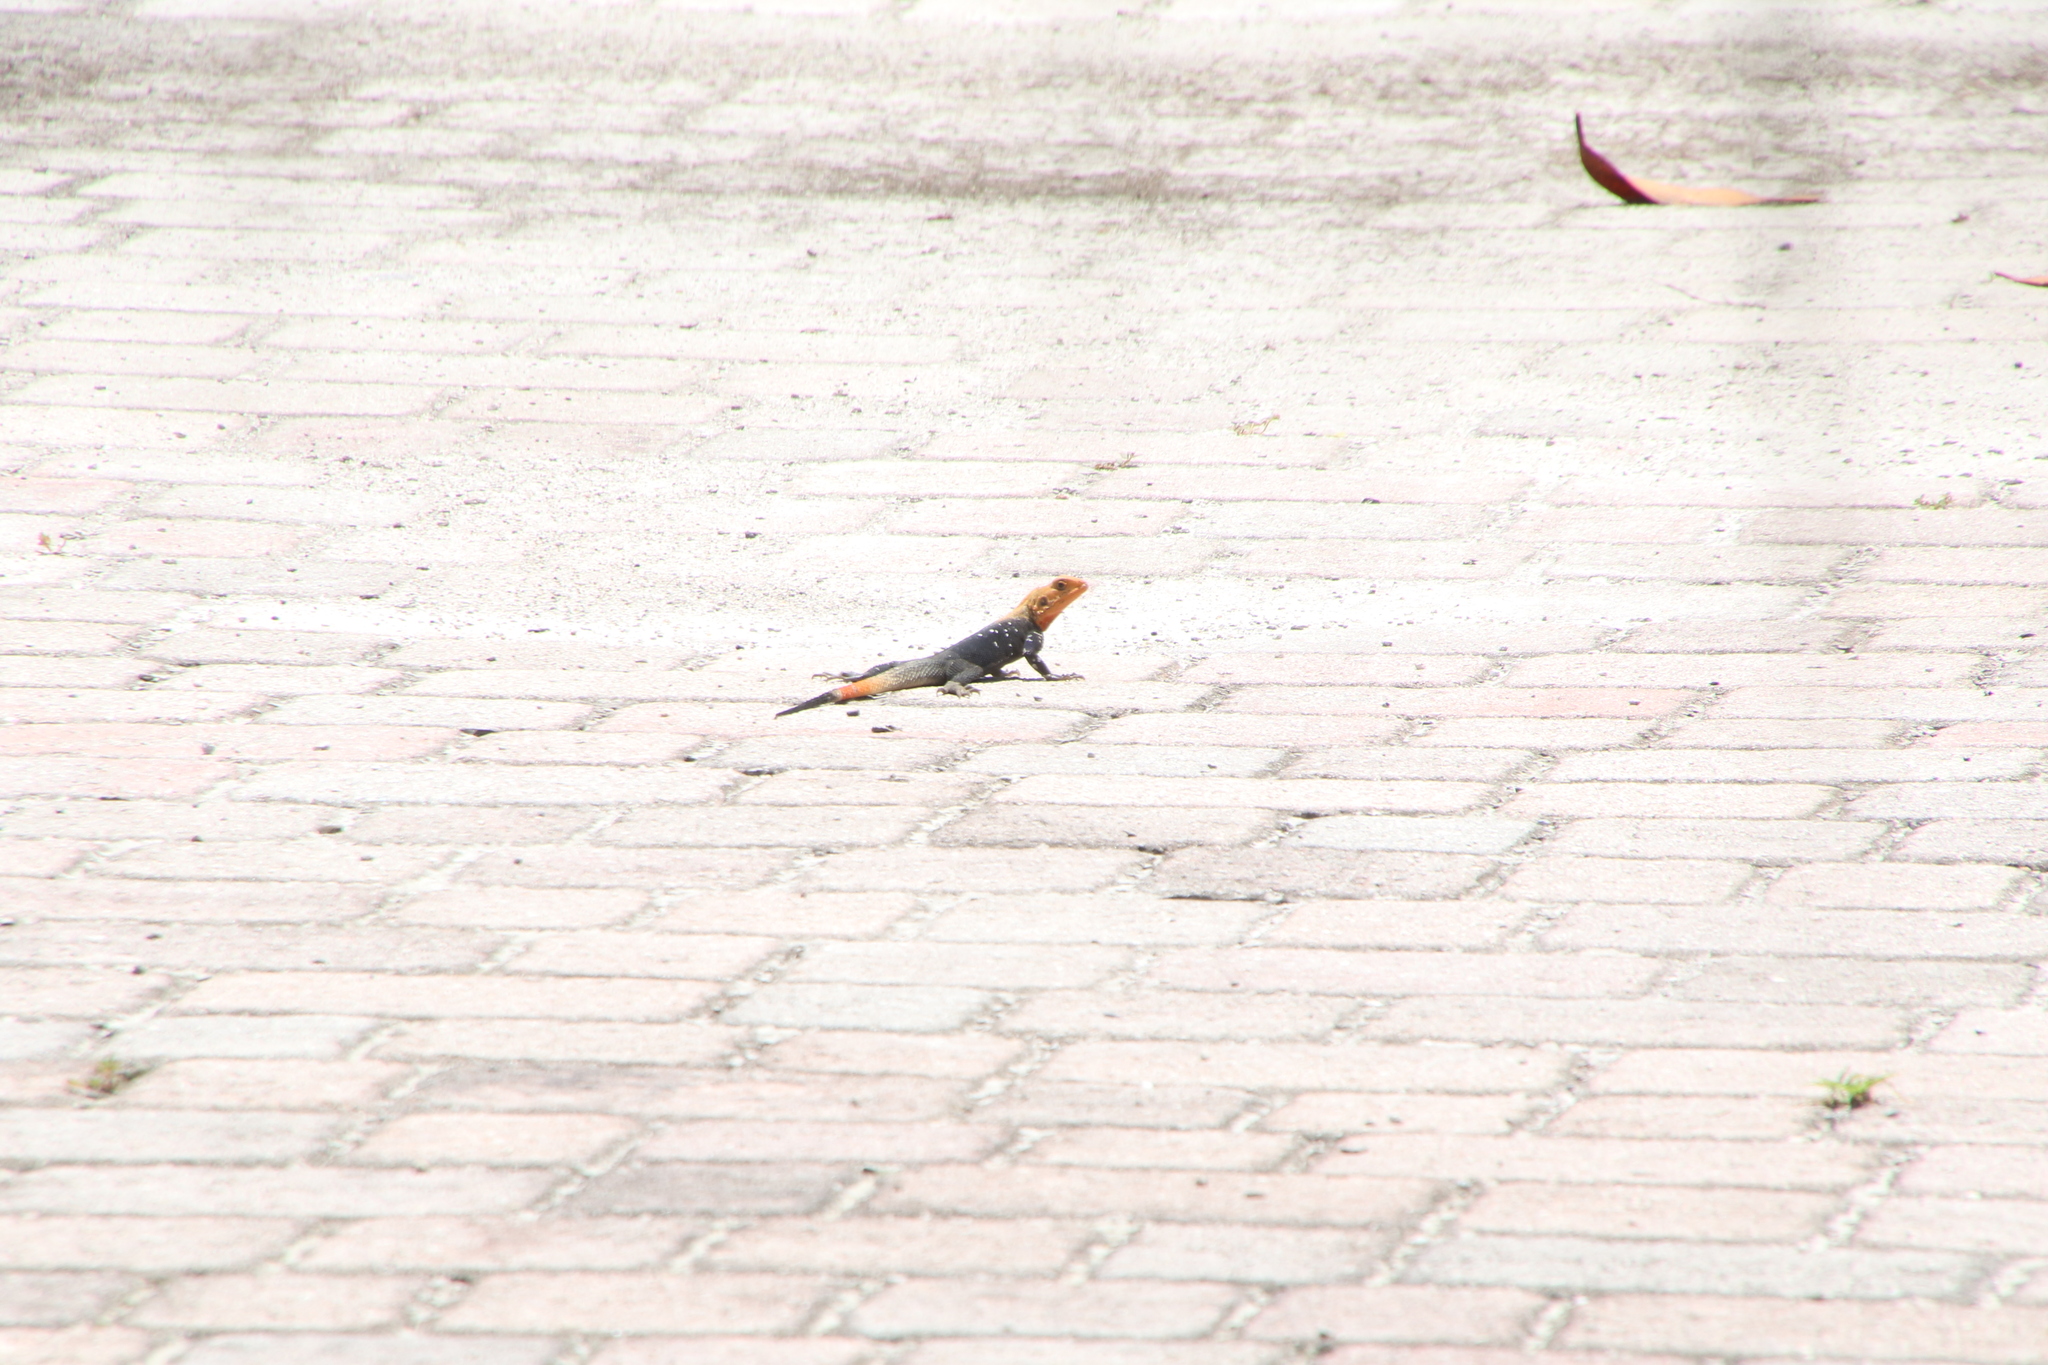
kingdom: Animalia
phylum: Chordata
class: Squamata
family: Agamidae
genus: Agama
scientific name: Agama picticauda
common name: Red-headed agama
